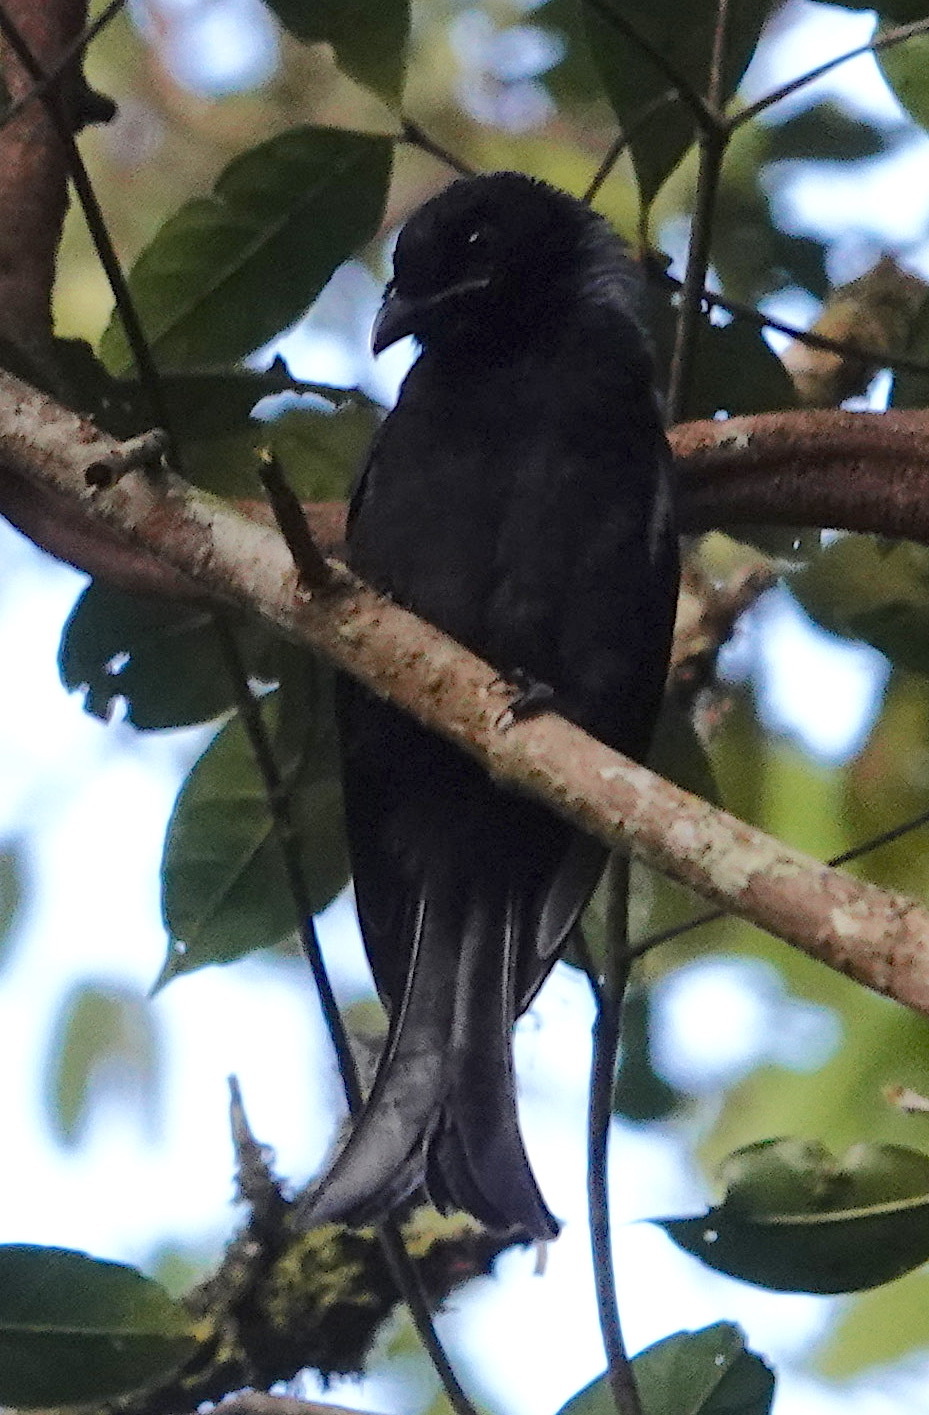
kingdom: Animalia
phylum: Chordata
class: Aves
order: Passeriformes
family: Dicruridae
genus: Dicrurus
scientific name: Dicrurus hottentottus
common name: Hair-crested drongo
